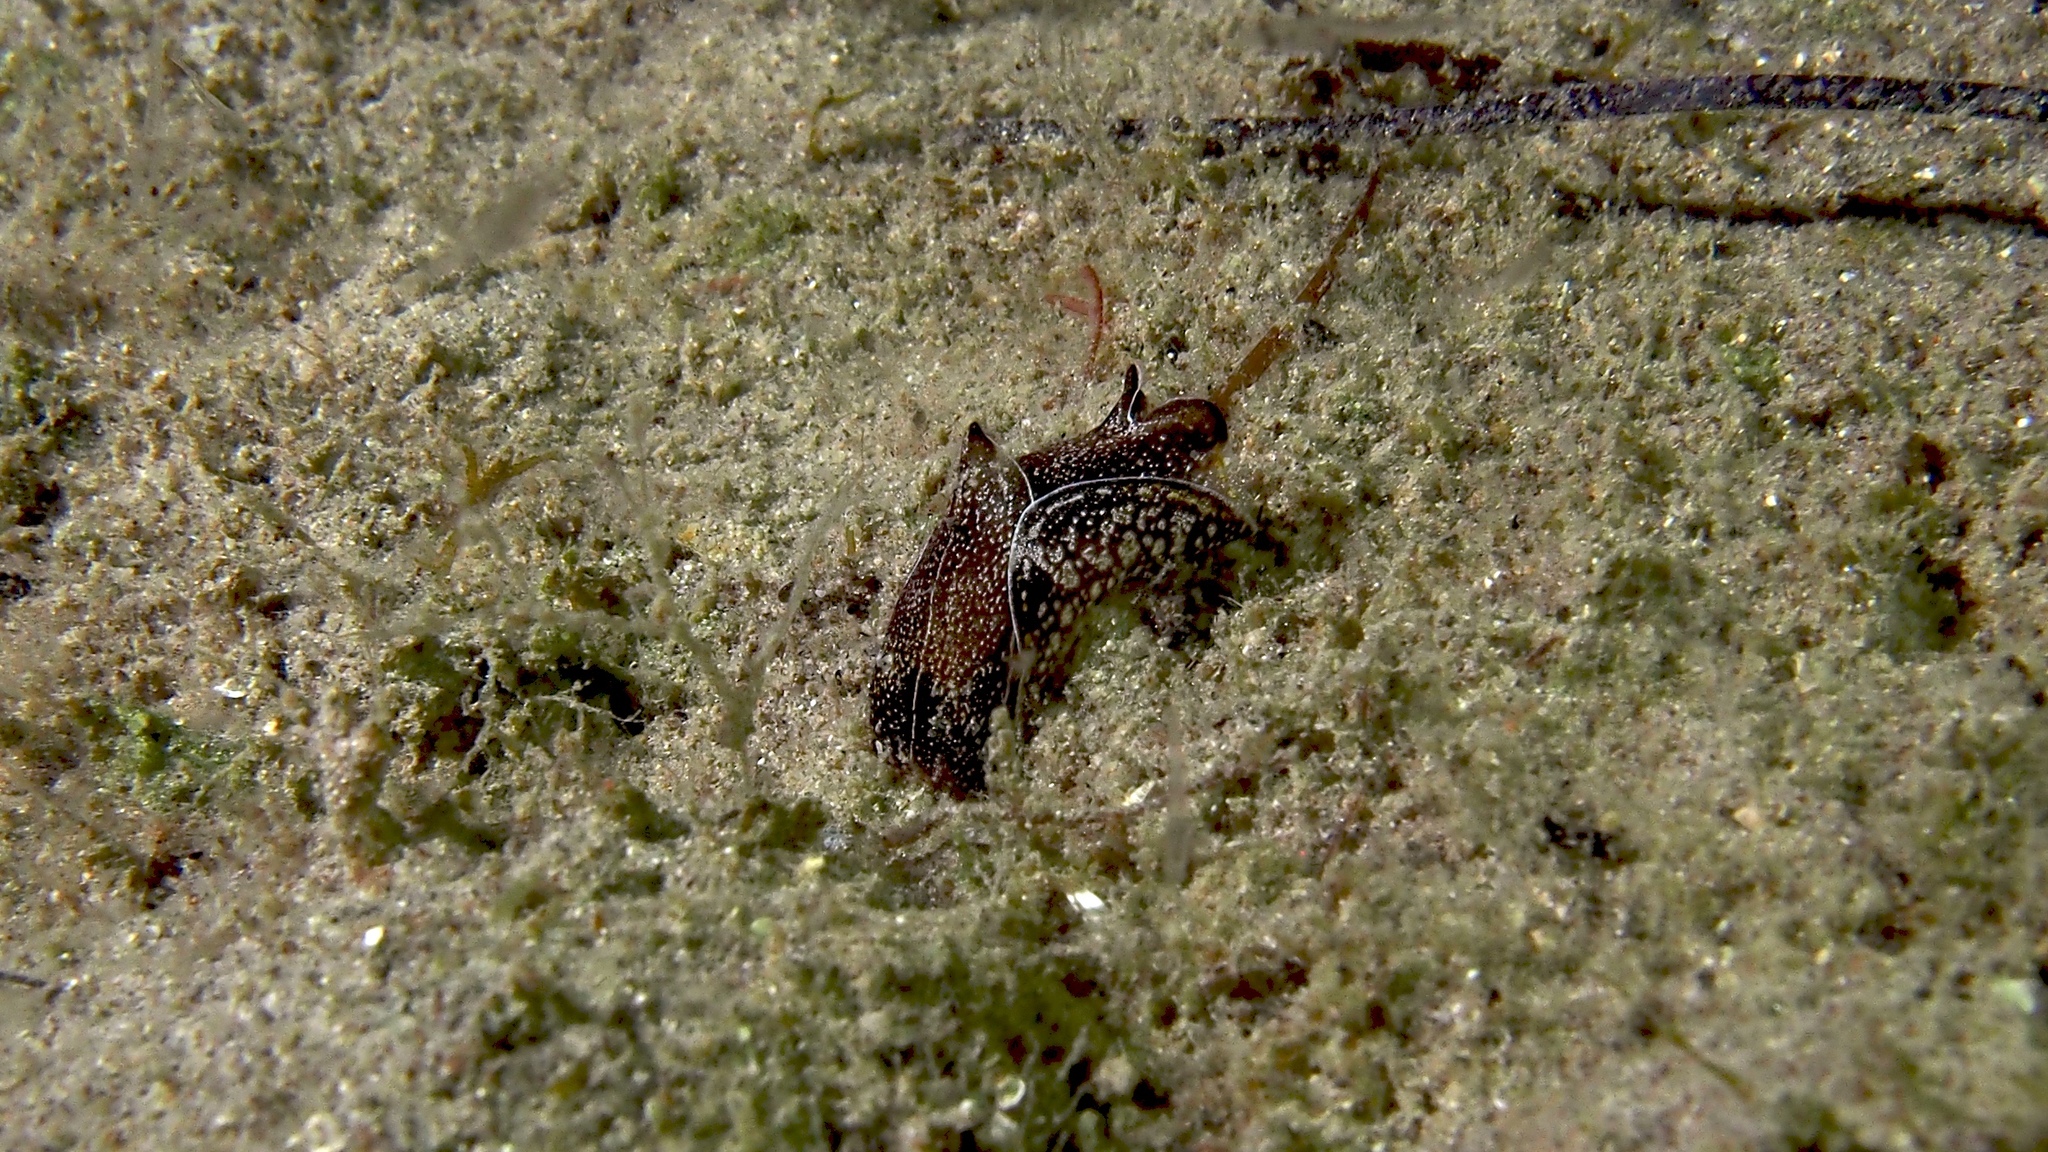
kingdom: Animalia
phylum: Mollusca
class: Gastropoda
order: Cephalaspidea
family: Aglajidae
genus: Philinopsis
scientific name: Philinopsis taronga
